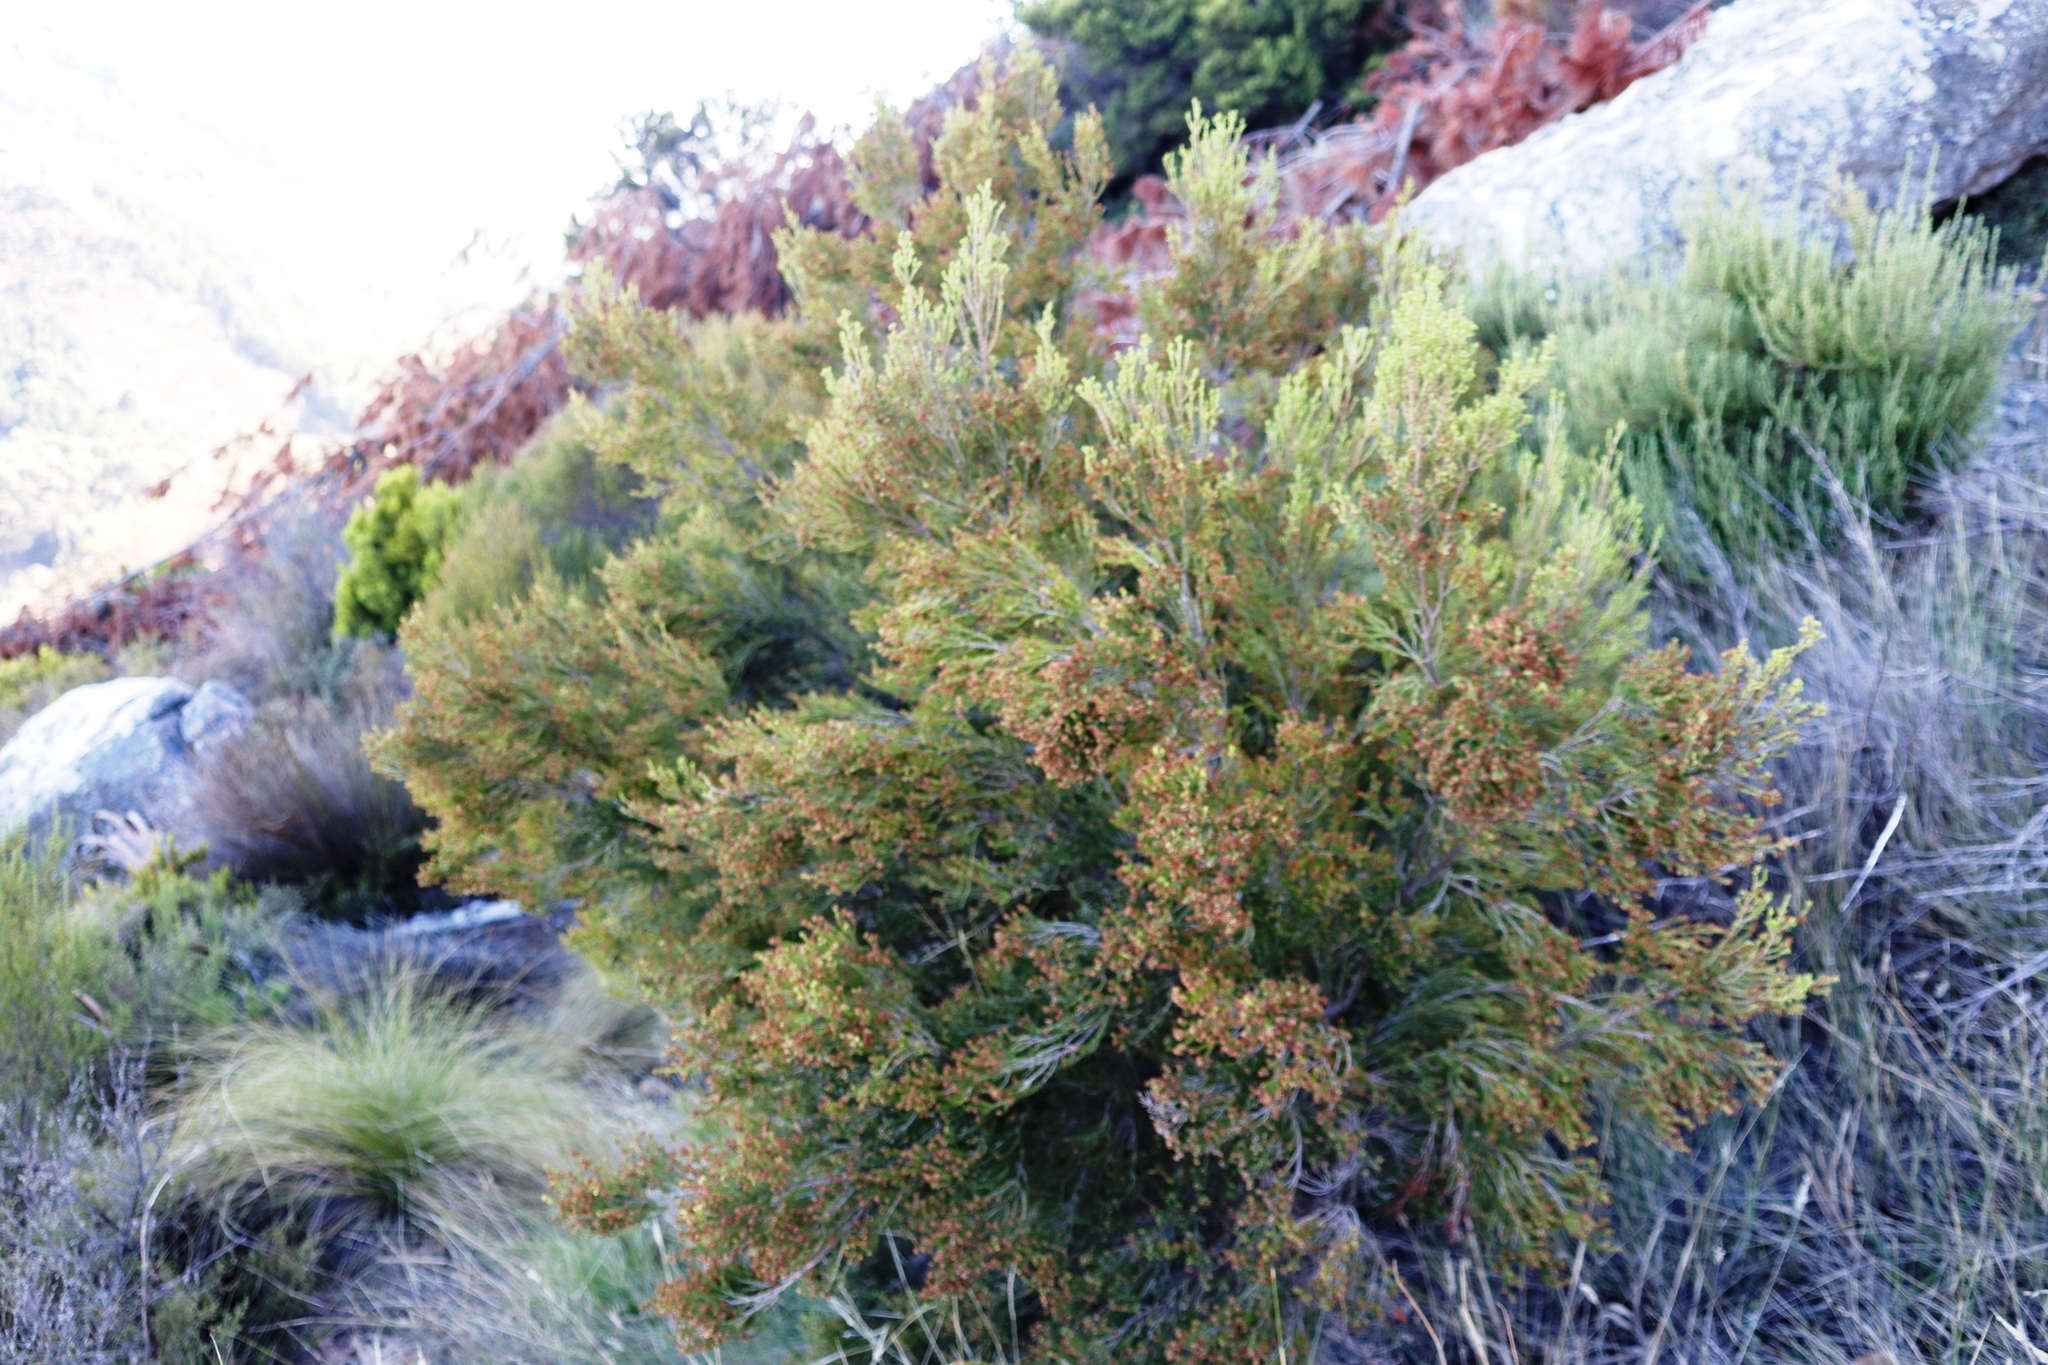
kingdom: Plantae
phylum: Tracheophyta
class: Magnoliopsida
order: Ericales
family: Ericaceae
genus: Erica
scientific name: Erica tristis
